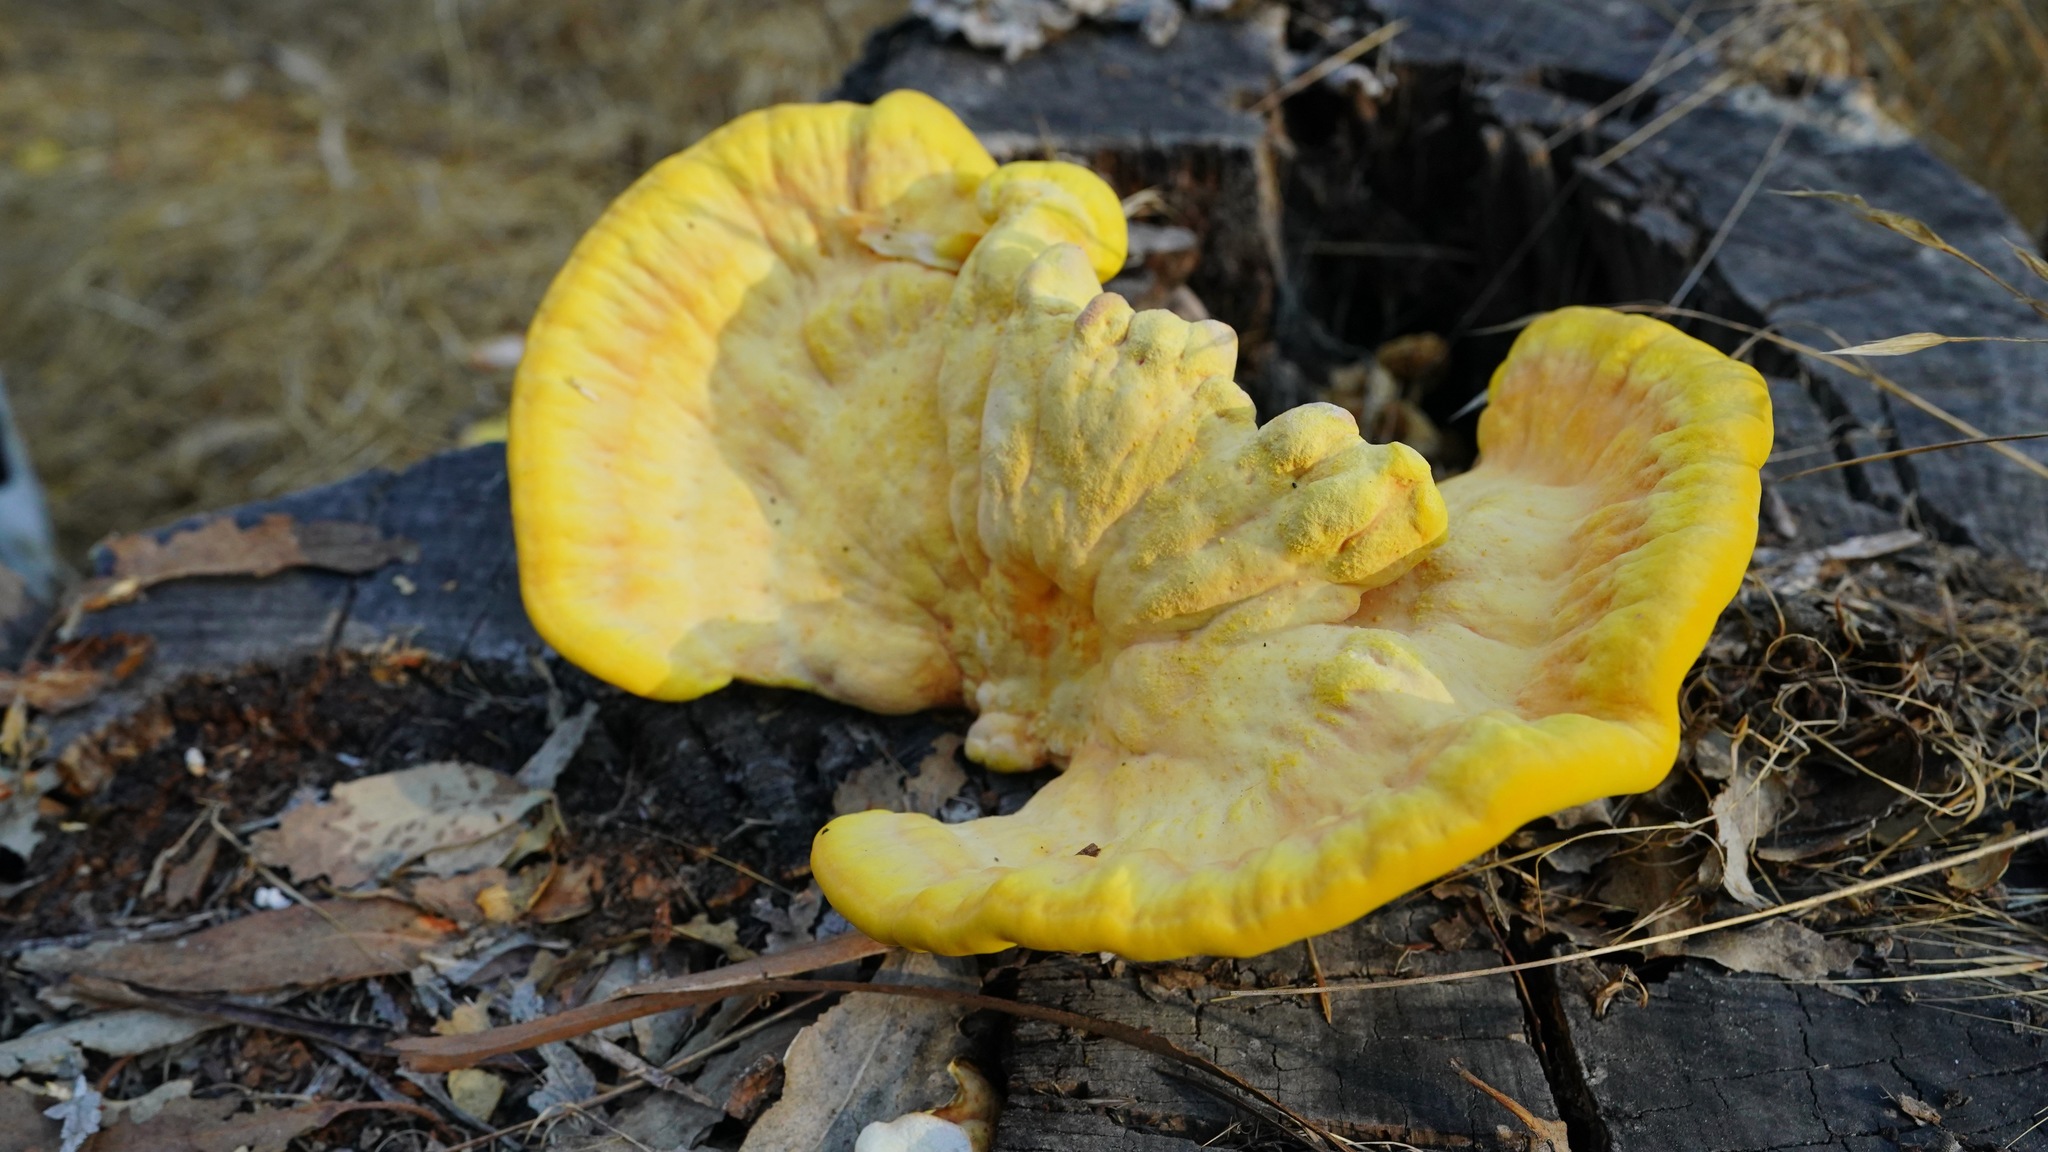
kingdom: Fungi
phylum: Basidiomycota
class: Agaricomycetes
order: Polyporales
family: Laetiporaceae
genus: Laetiporus
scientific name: Laetiporus gilbertsonii
